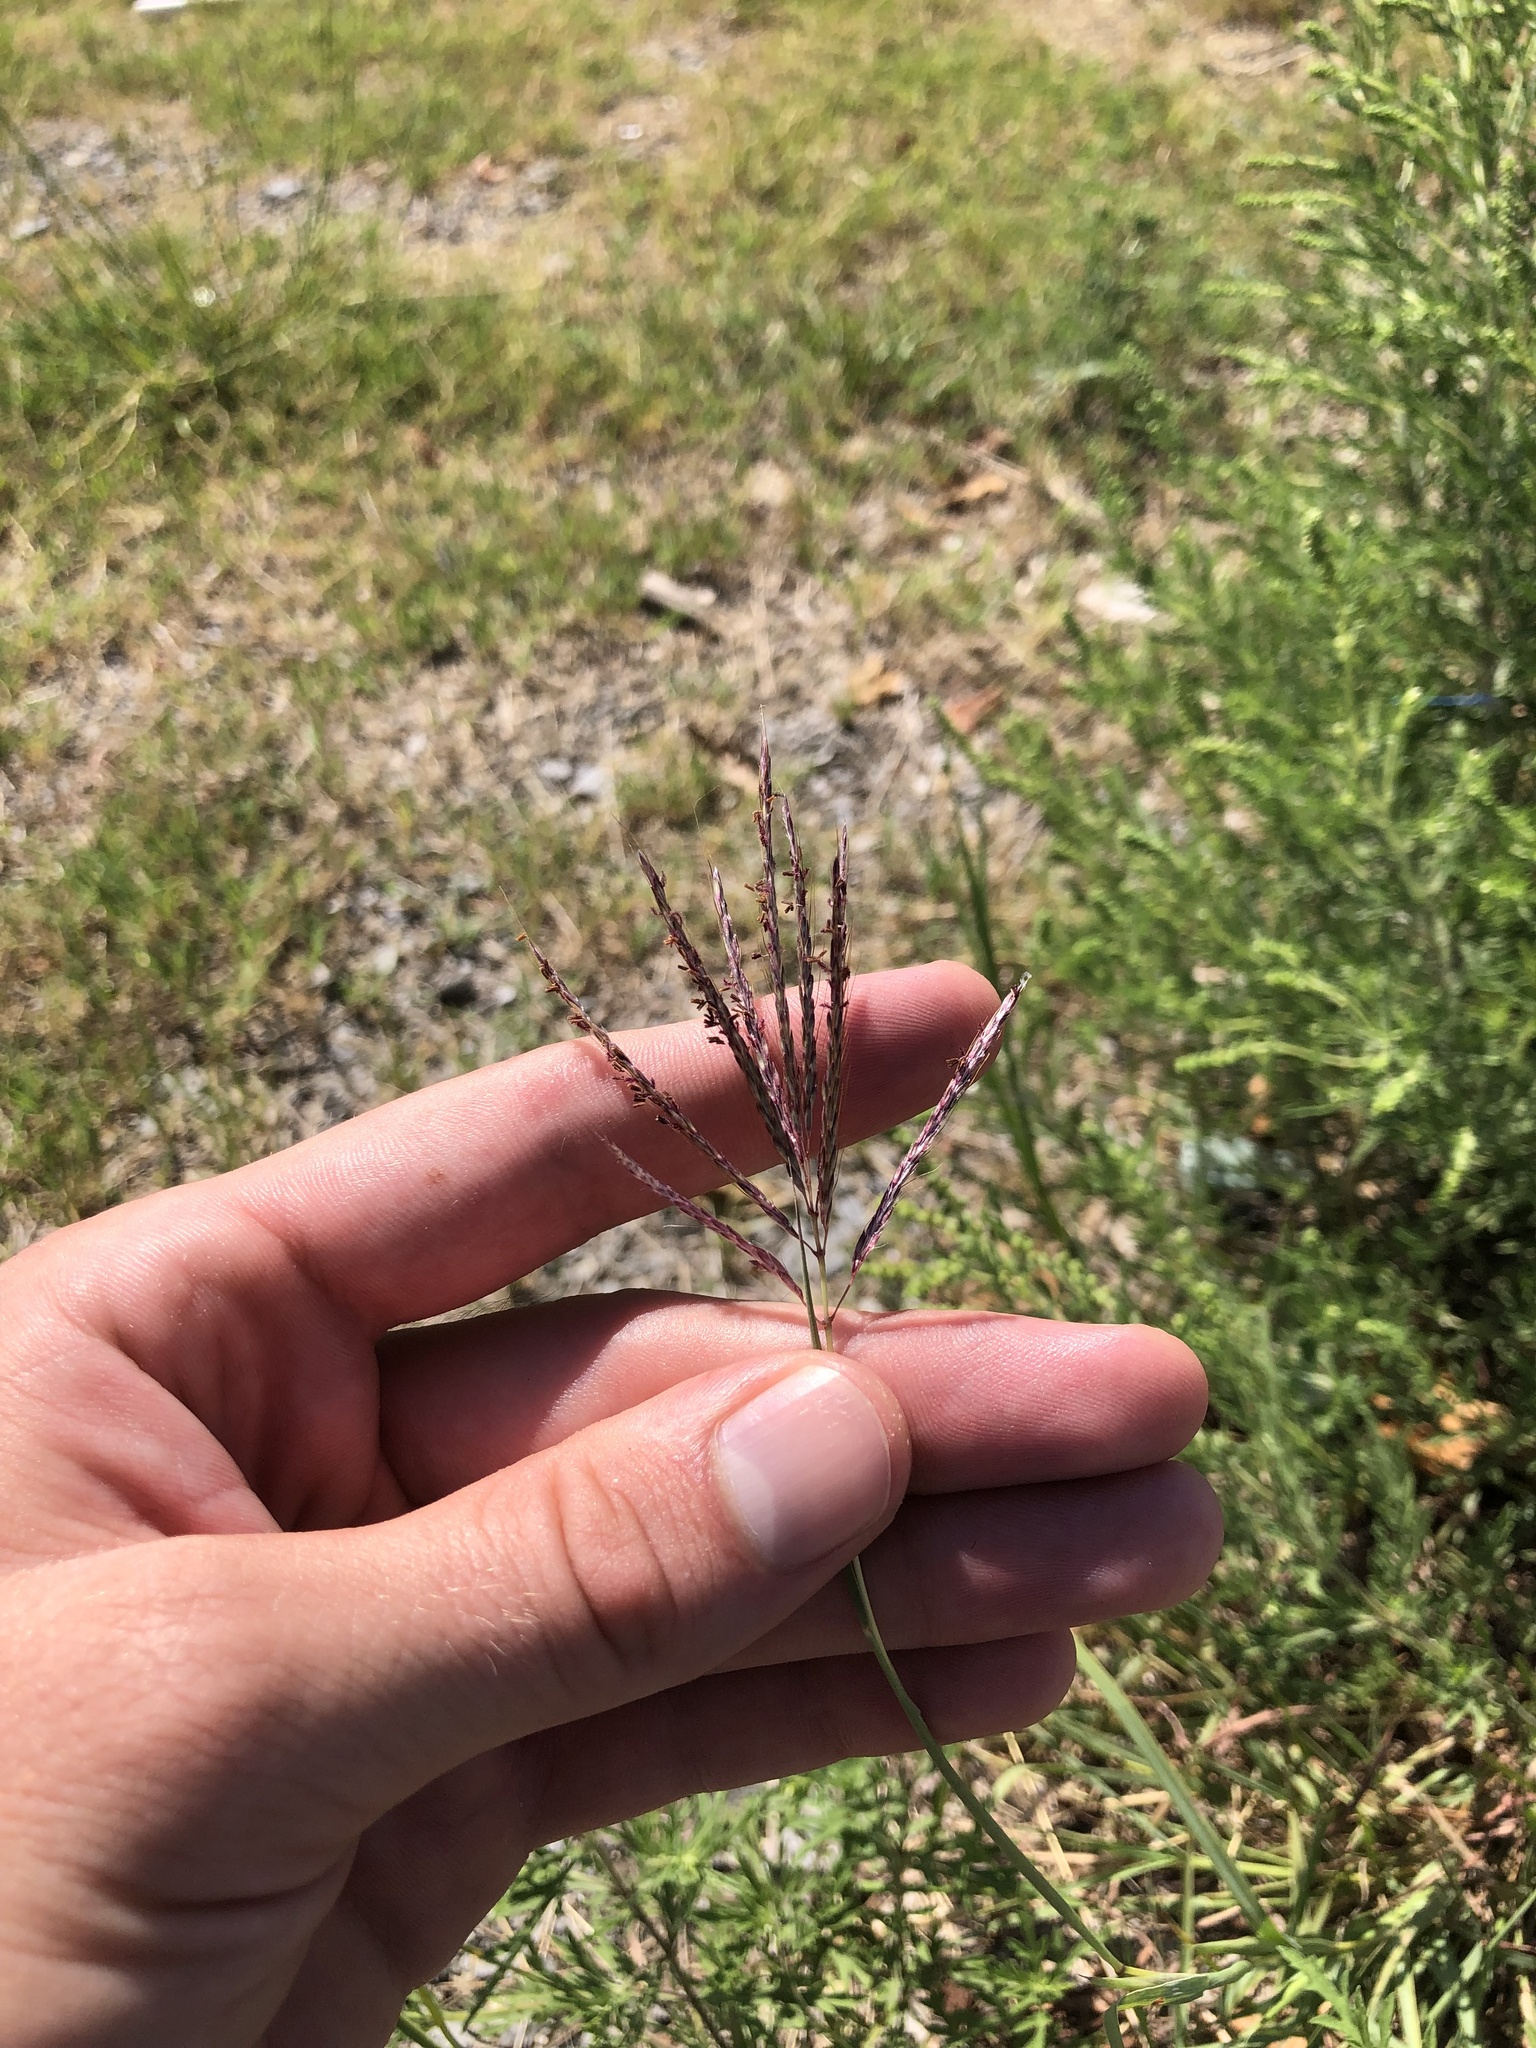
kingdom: Plantae
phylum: Tracheophyta
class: Liliopsida
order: Poales
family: Poaceae
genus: Bothriochloa
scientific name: Bothriochloa ischaemum
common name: Yellow bluestem
